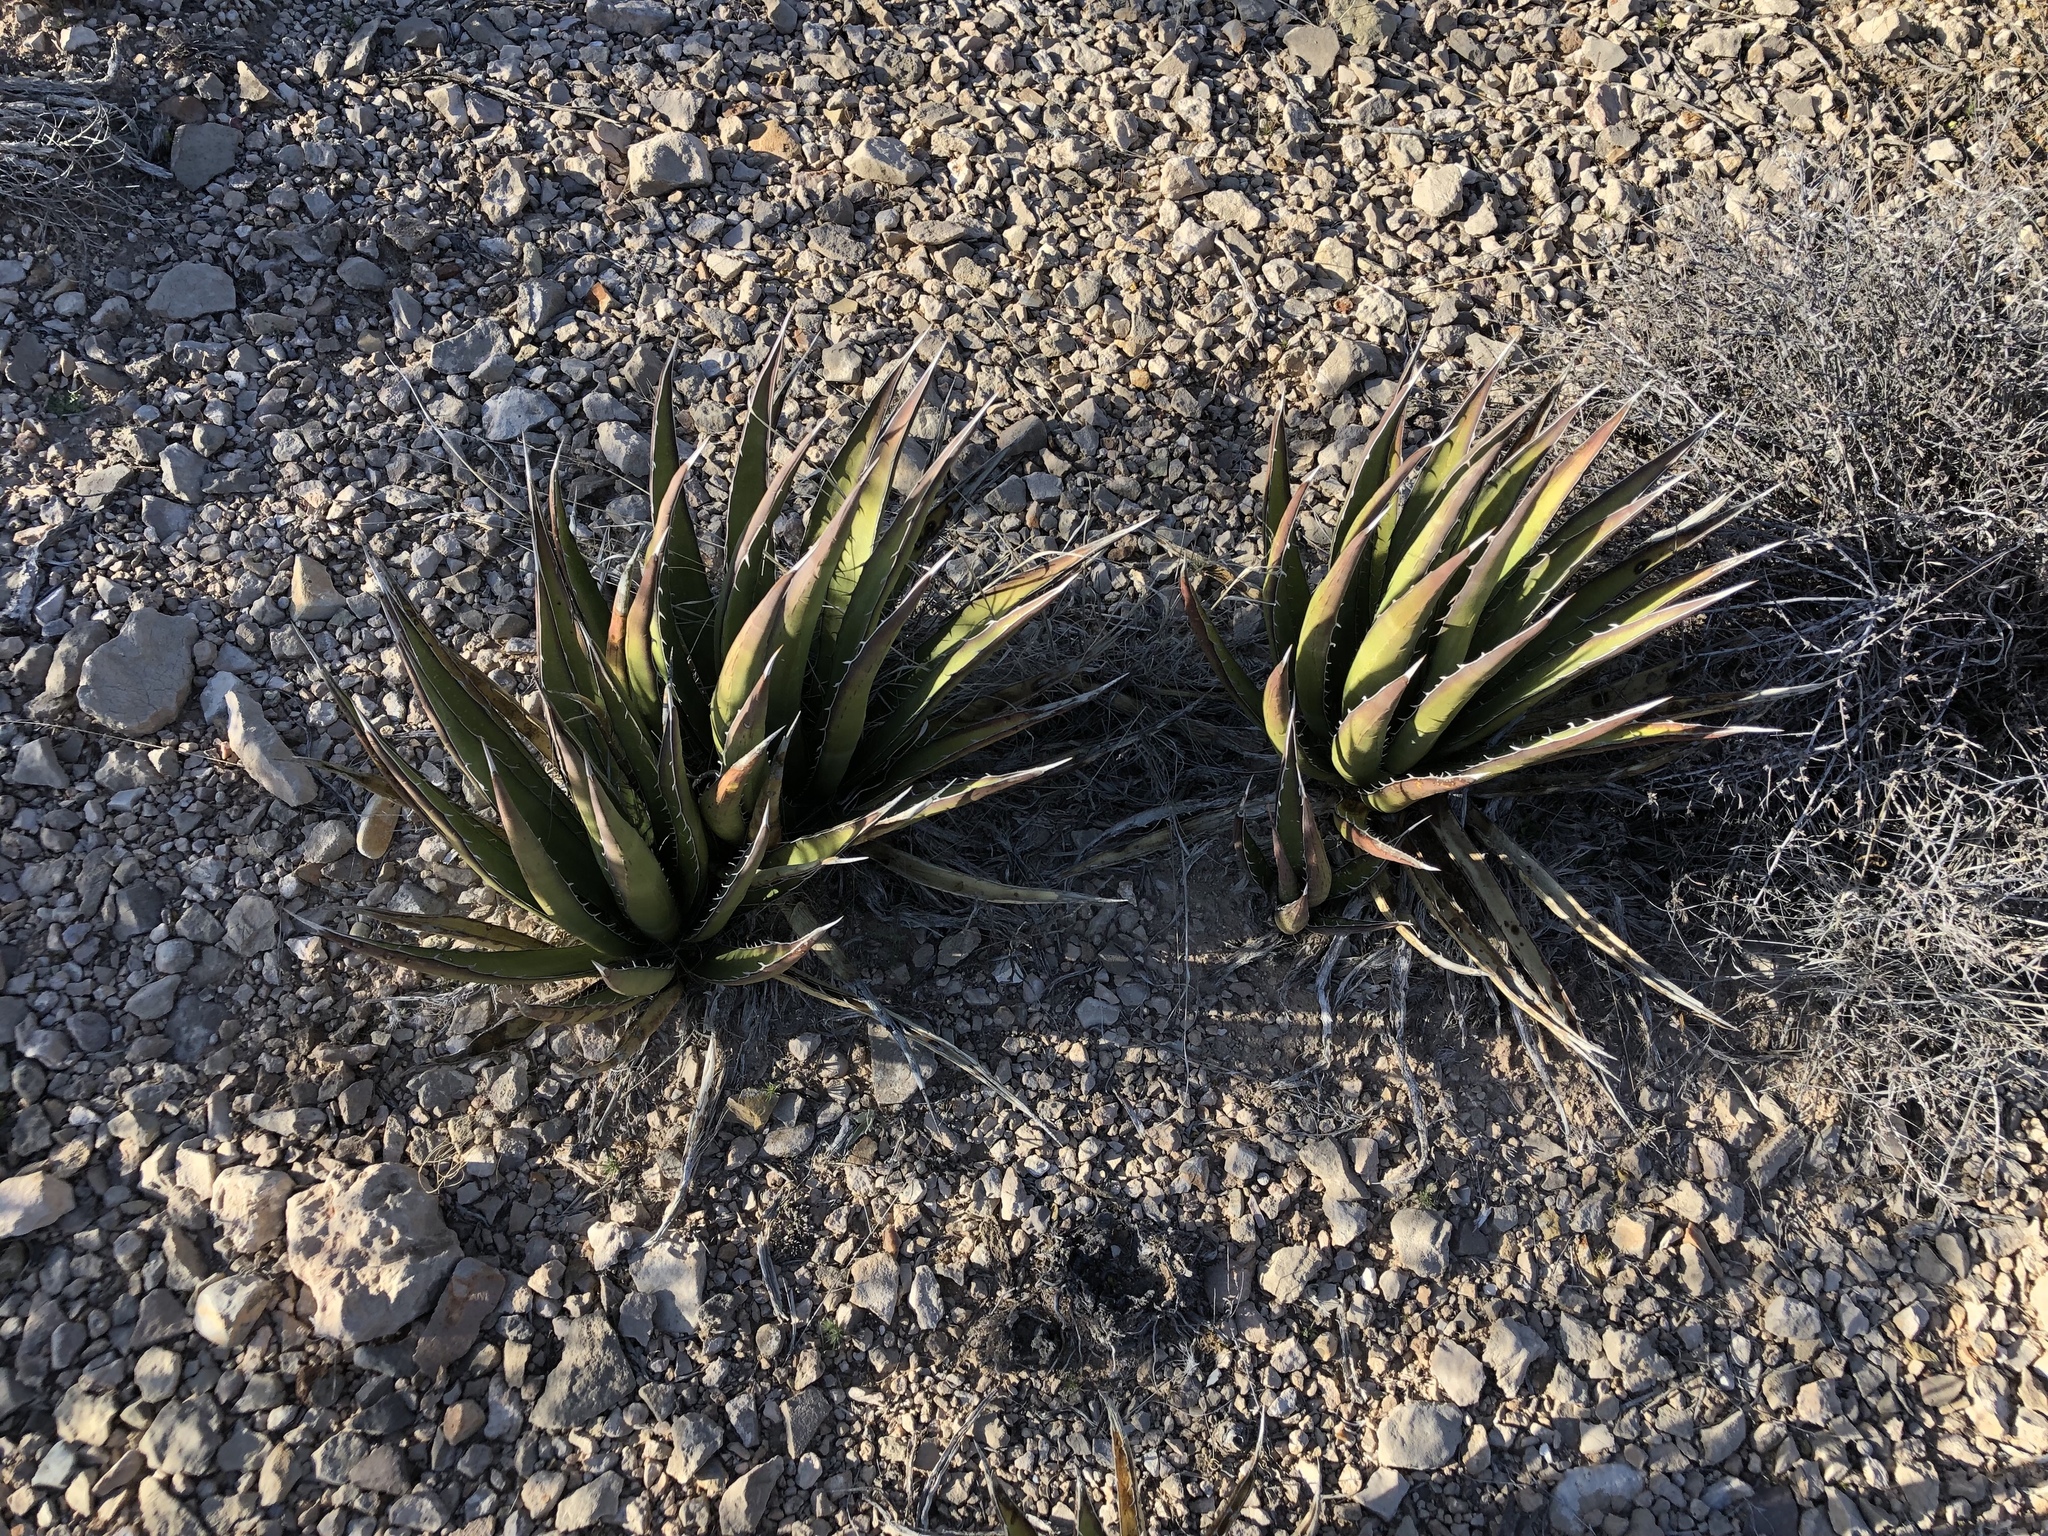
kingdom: Plantae
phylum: Tracheophyta
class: Liliopsida
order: Asparagales
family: Asparagaceae
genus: Agave
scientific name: Agave lechuguilla
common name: Lecheguilla agave
